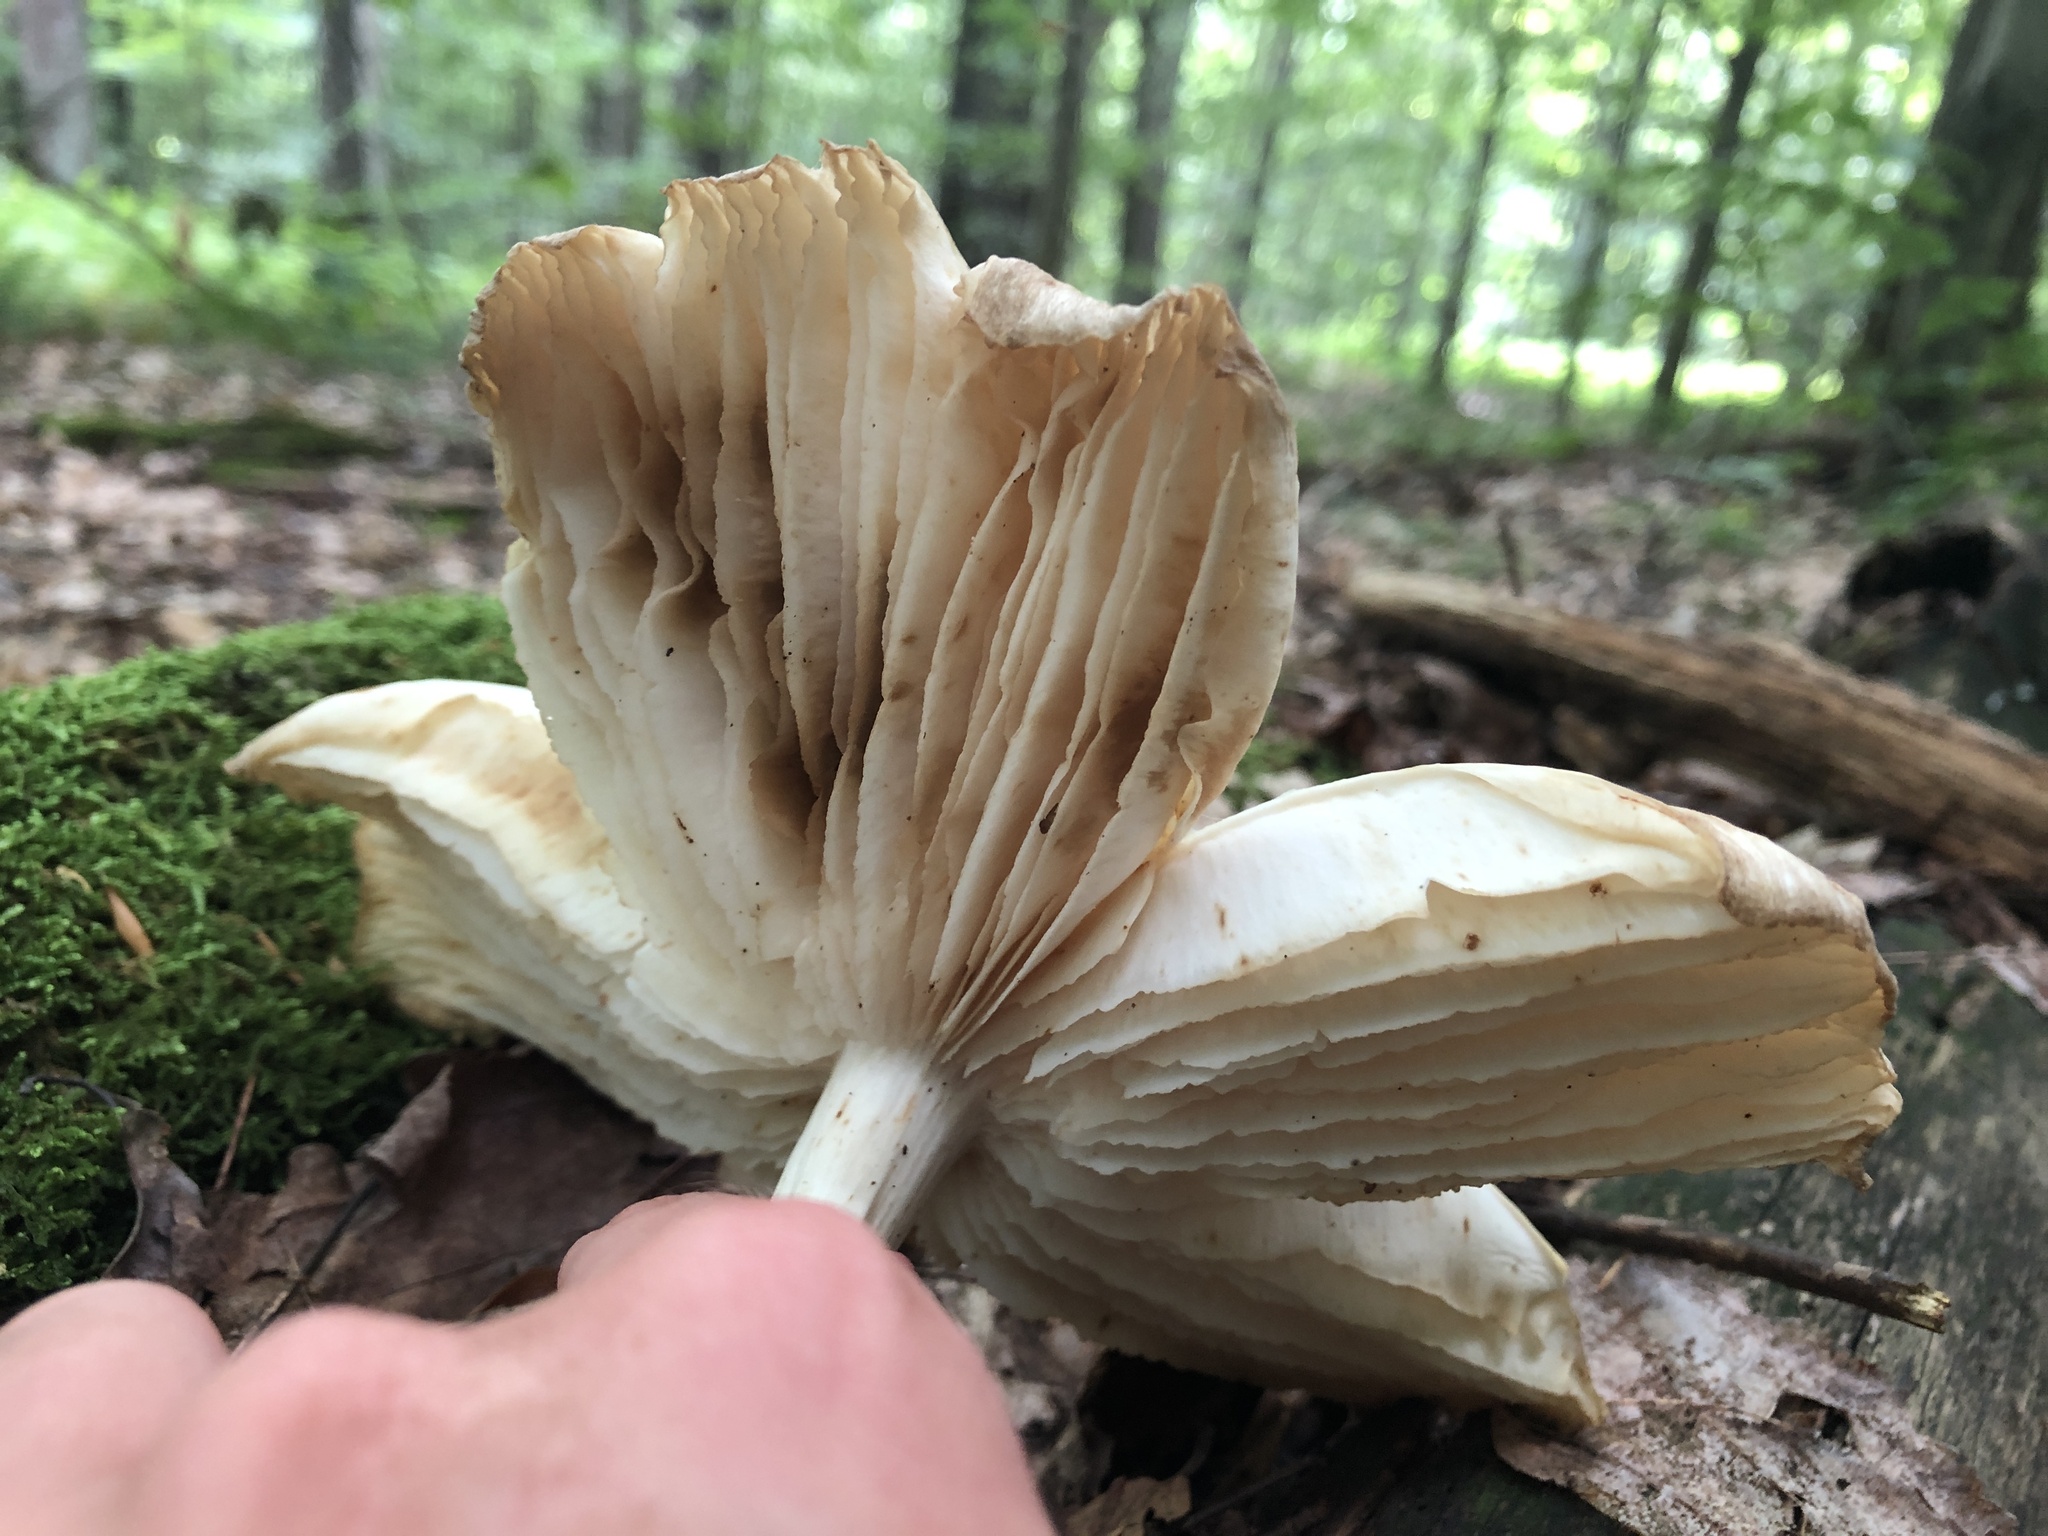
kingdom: Fungi
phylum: Basidiomycota
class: Agaricomycetes
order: Agaricales
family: Tricholomataceae
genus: Megacollybia
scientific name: Megacollybia rodmanii
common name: Eastern american platterful mushroom
